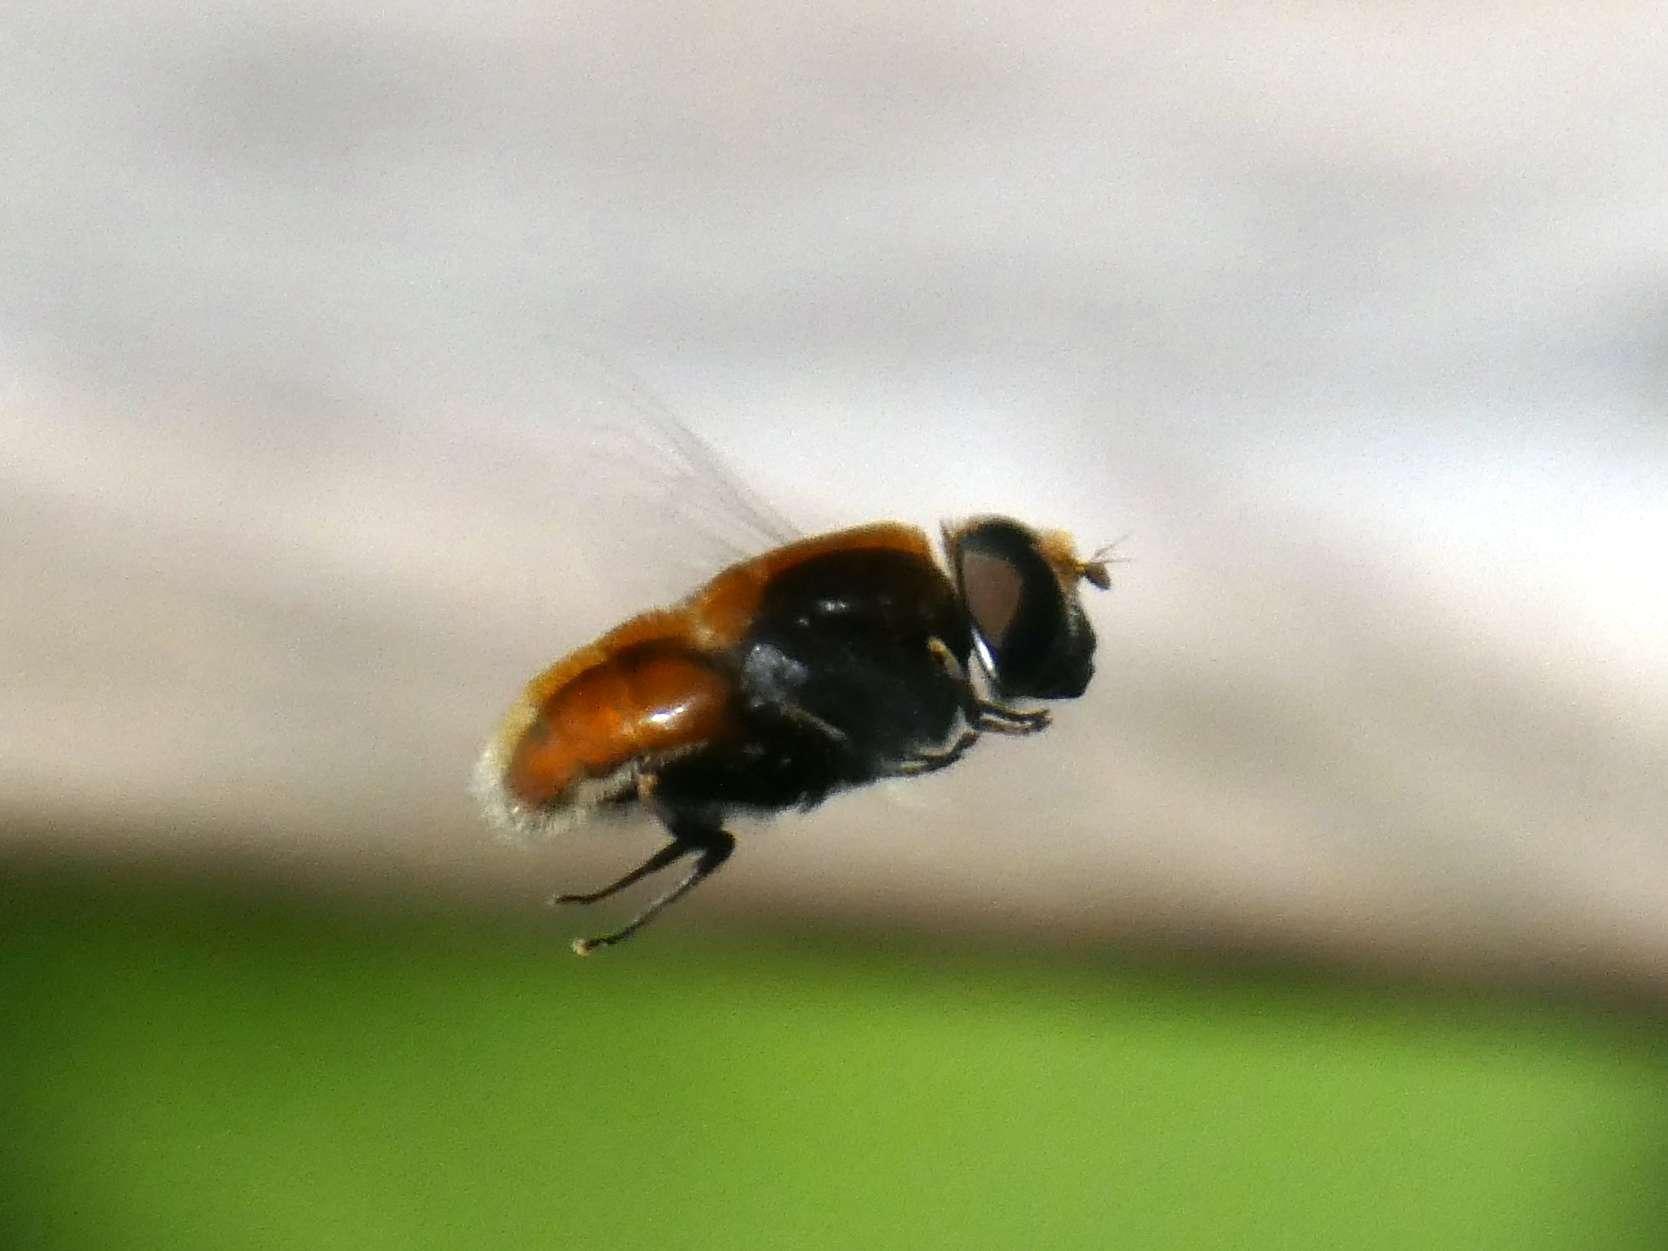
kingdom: Animalia
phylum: Arthropoda
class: Insecta
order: Diptera
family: Syrphidae
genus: Eristalis
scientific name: Eristalis intricaria
